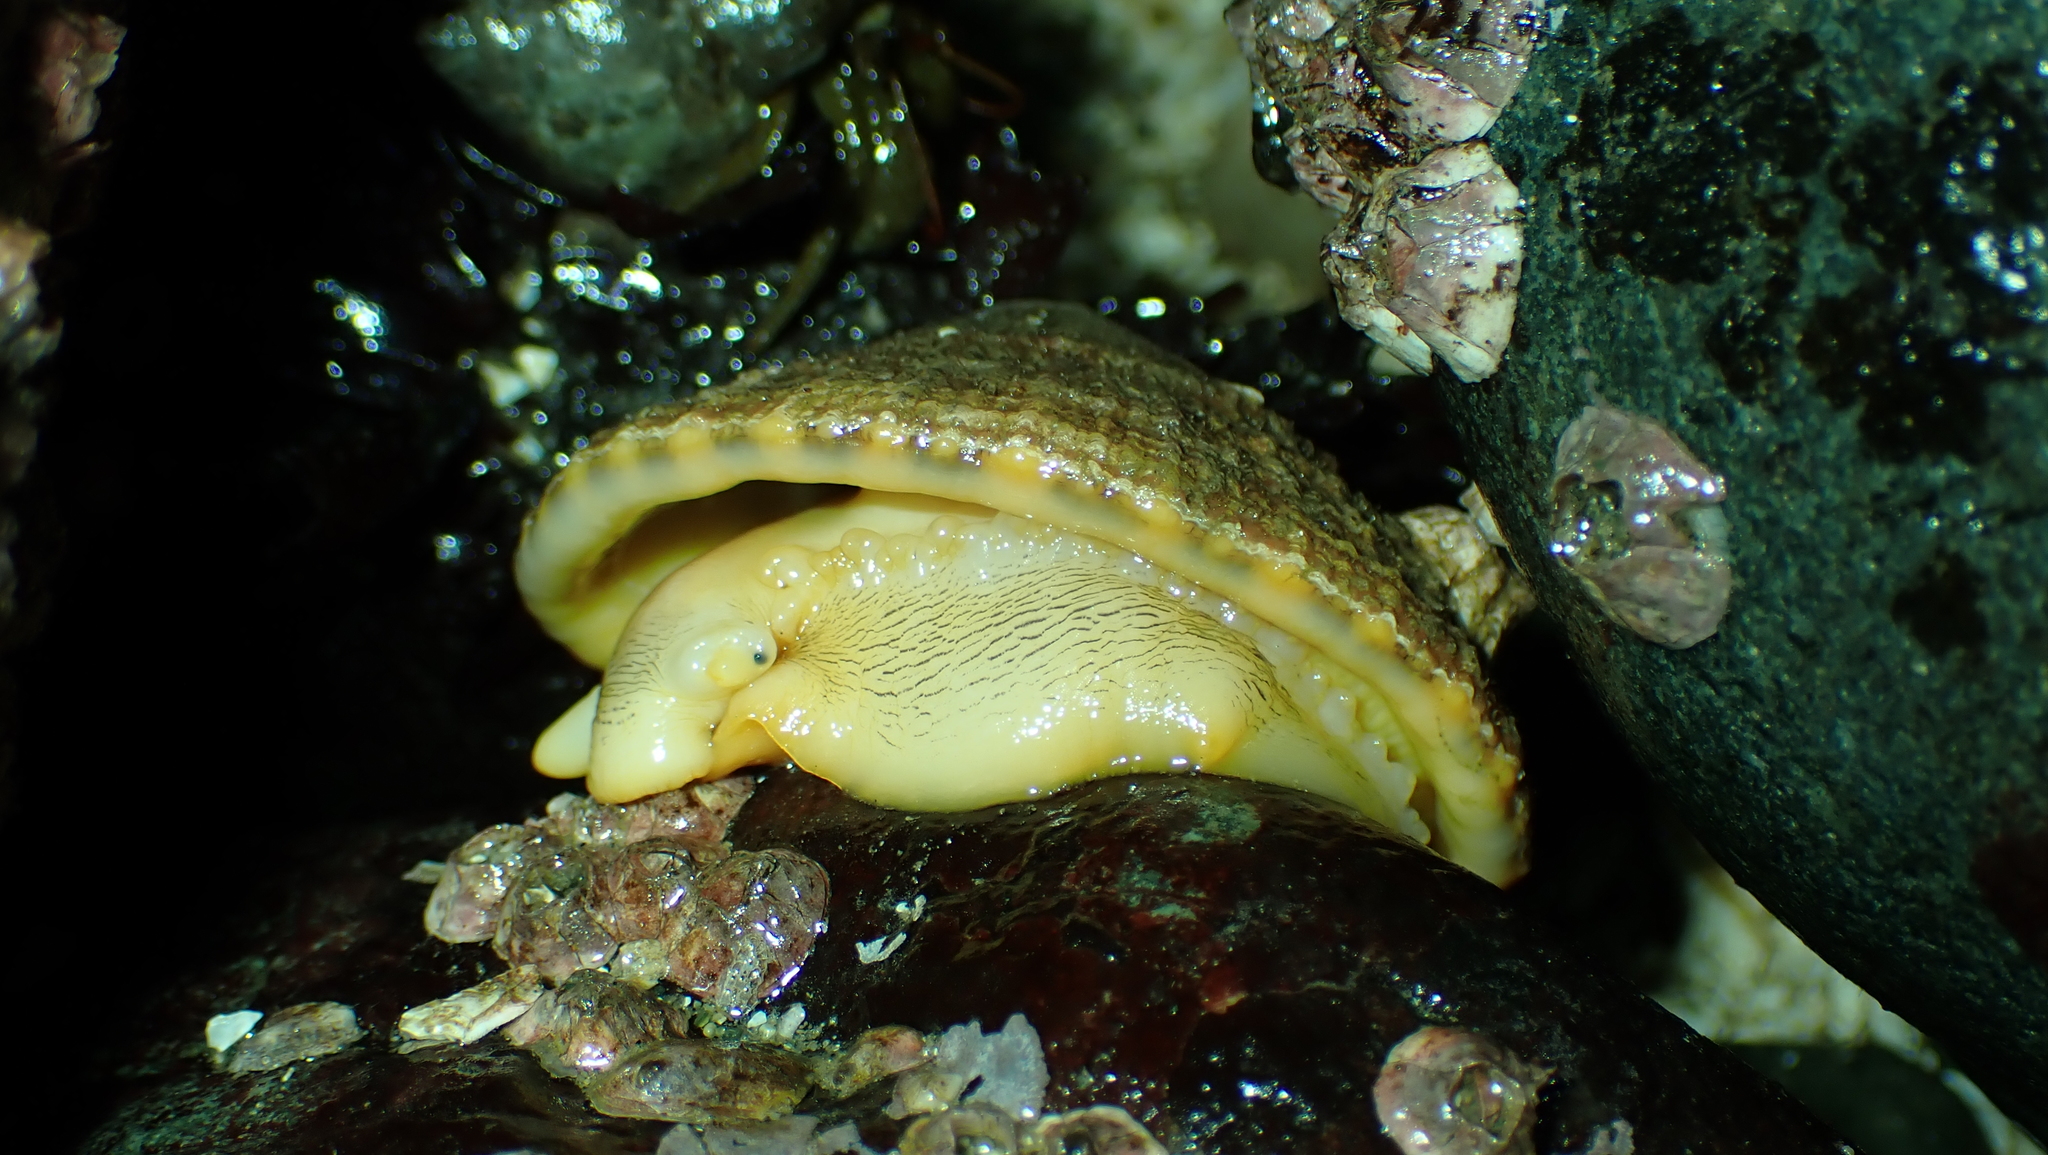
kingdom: Animalia
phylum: Mollusca
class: Gastropoda
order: Lepetellida
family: Fissurellidae
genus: Diodora
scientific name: Diodora aspera
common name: Rough keyhole limpet
